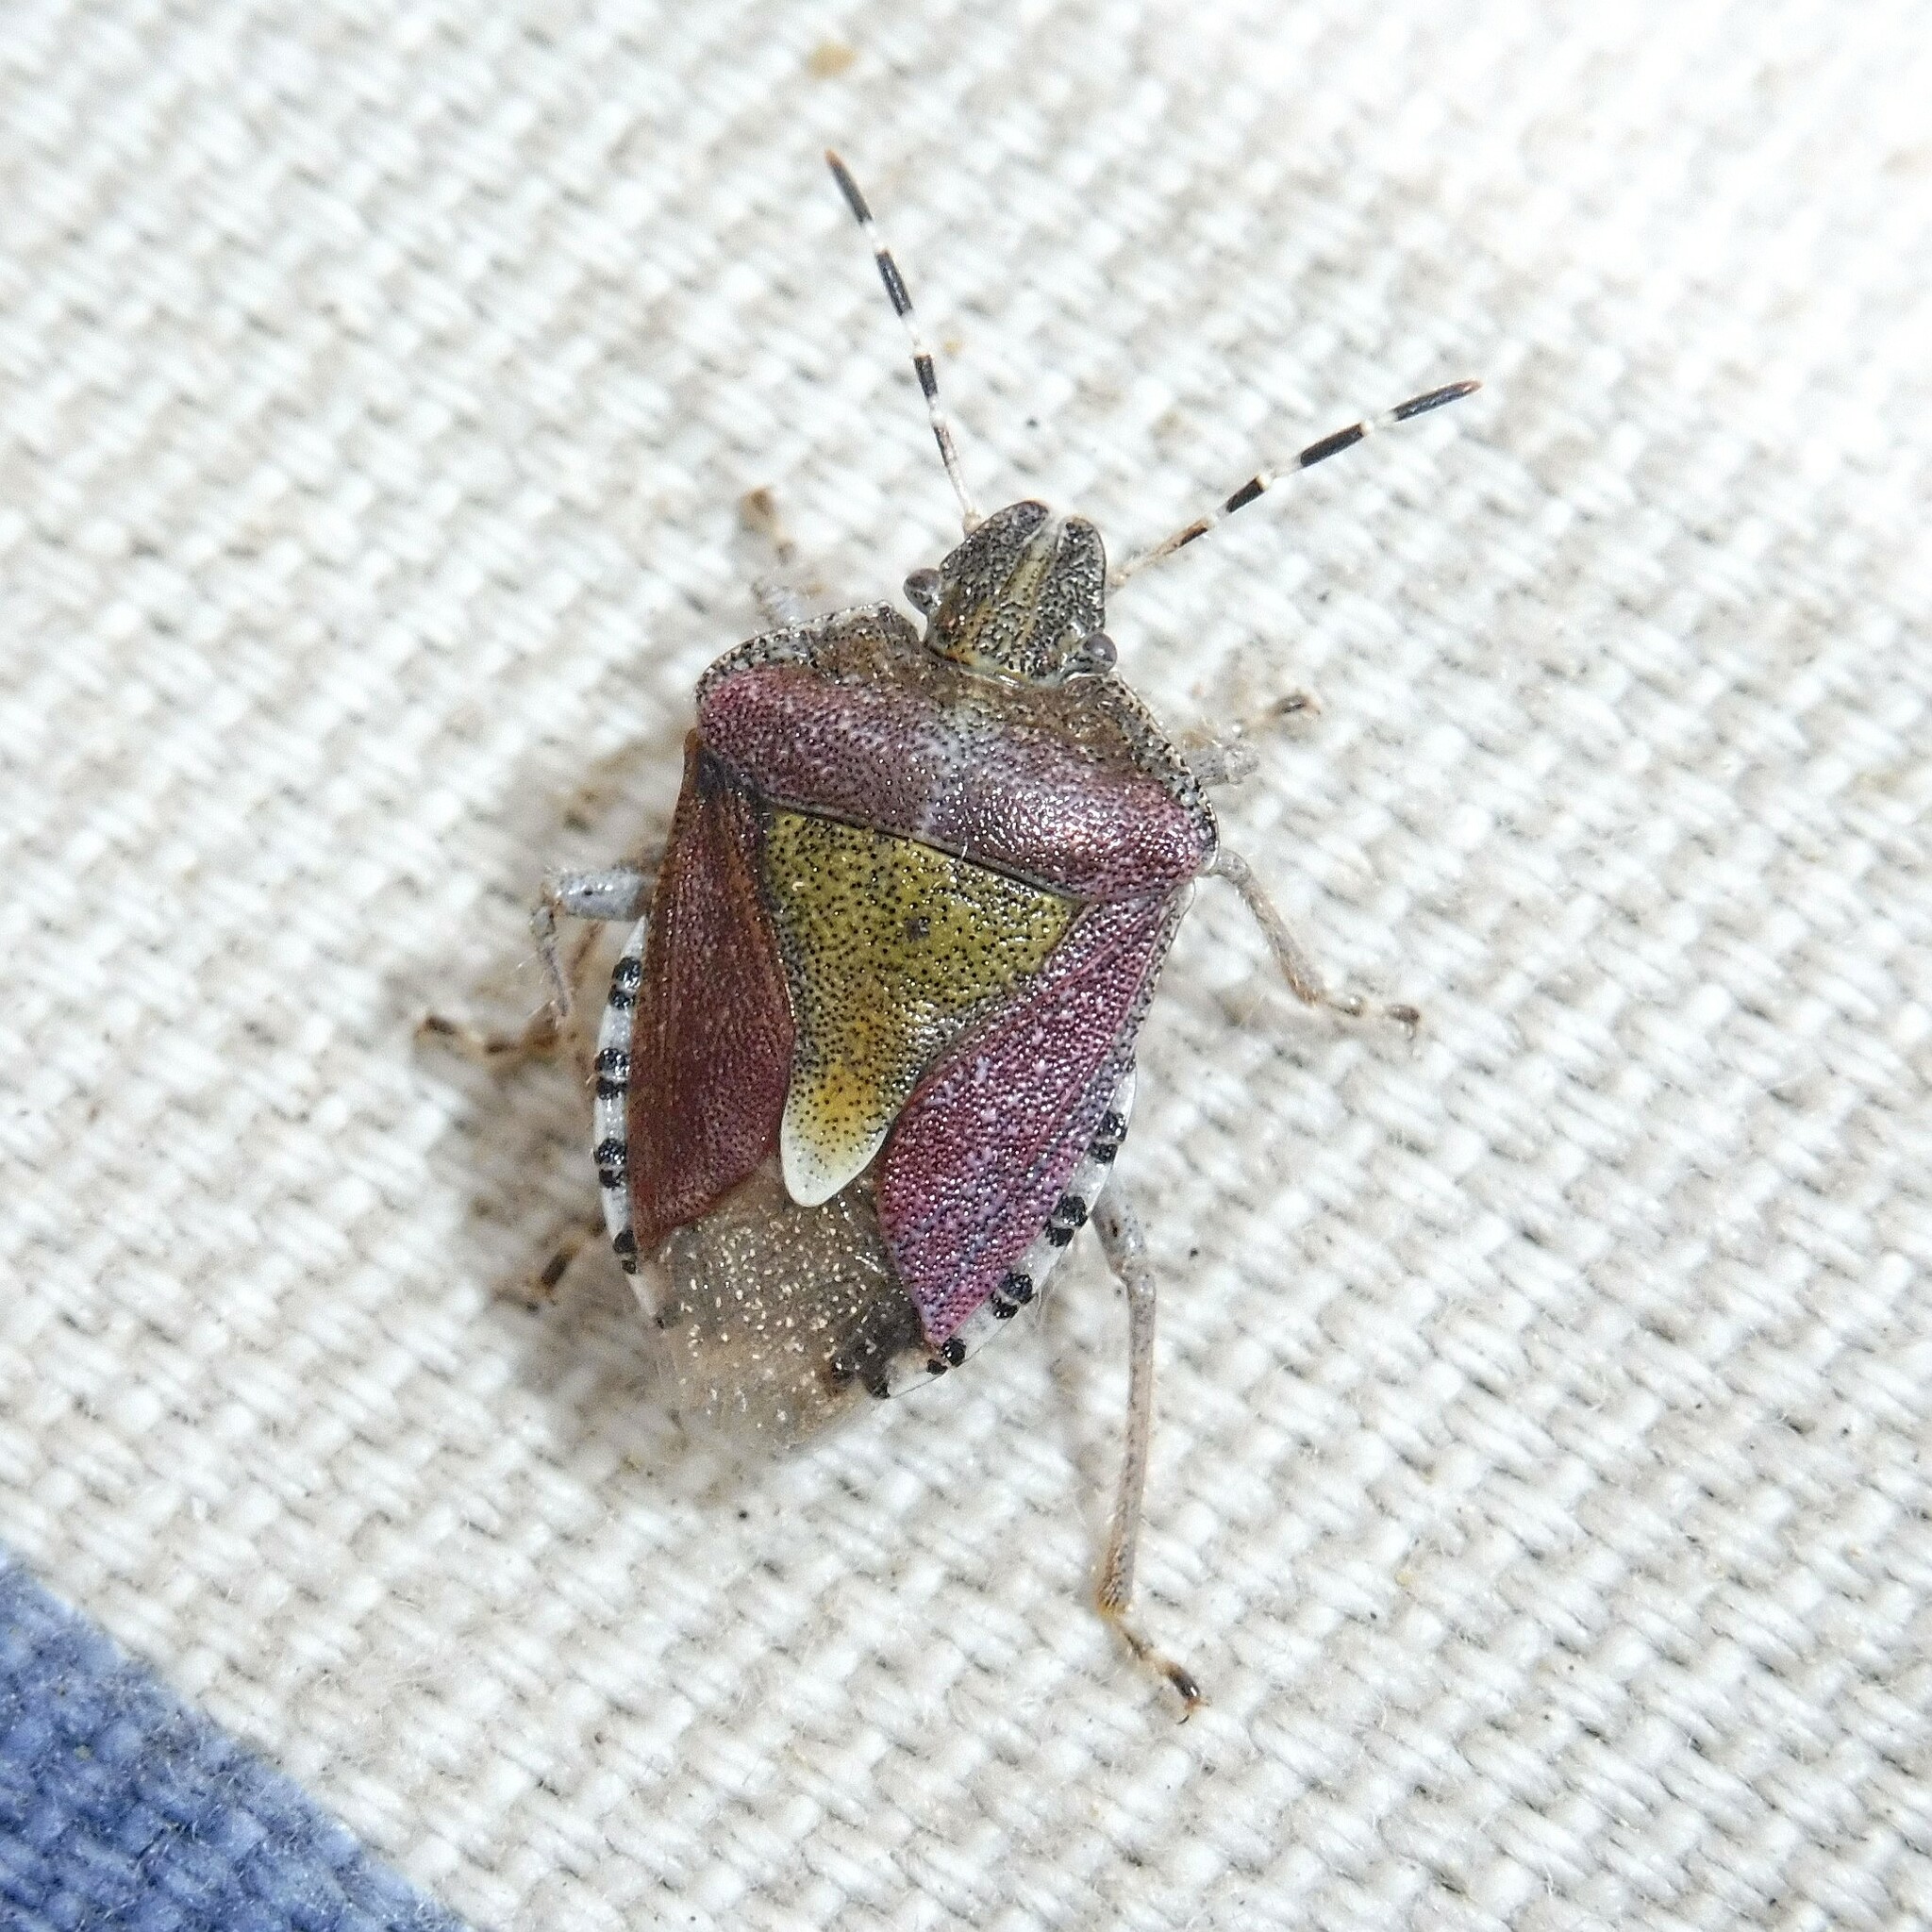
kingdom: Animalia
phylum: Arthropoda
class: Insecta
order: Hemiptera
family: Pentatomidae
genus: Dolycoris
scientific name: Dolycoris baccarum
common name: Sloe bug
